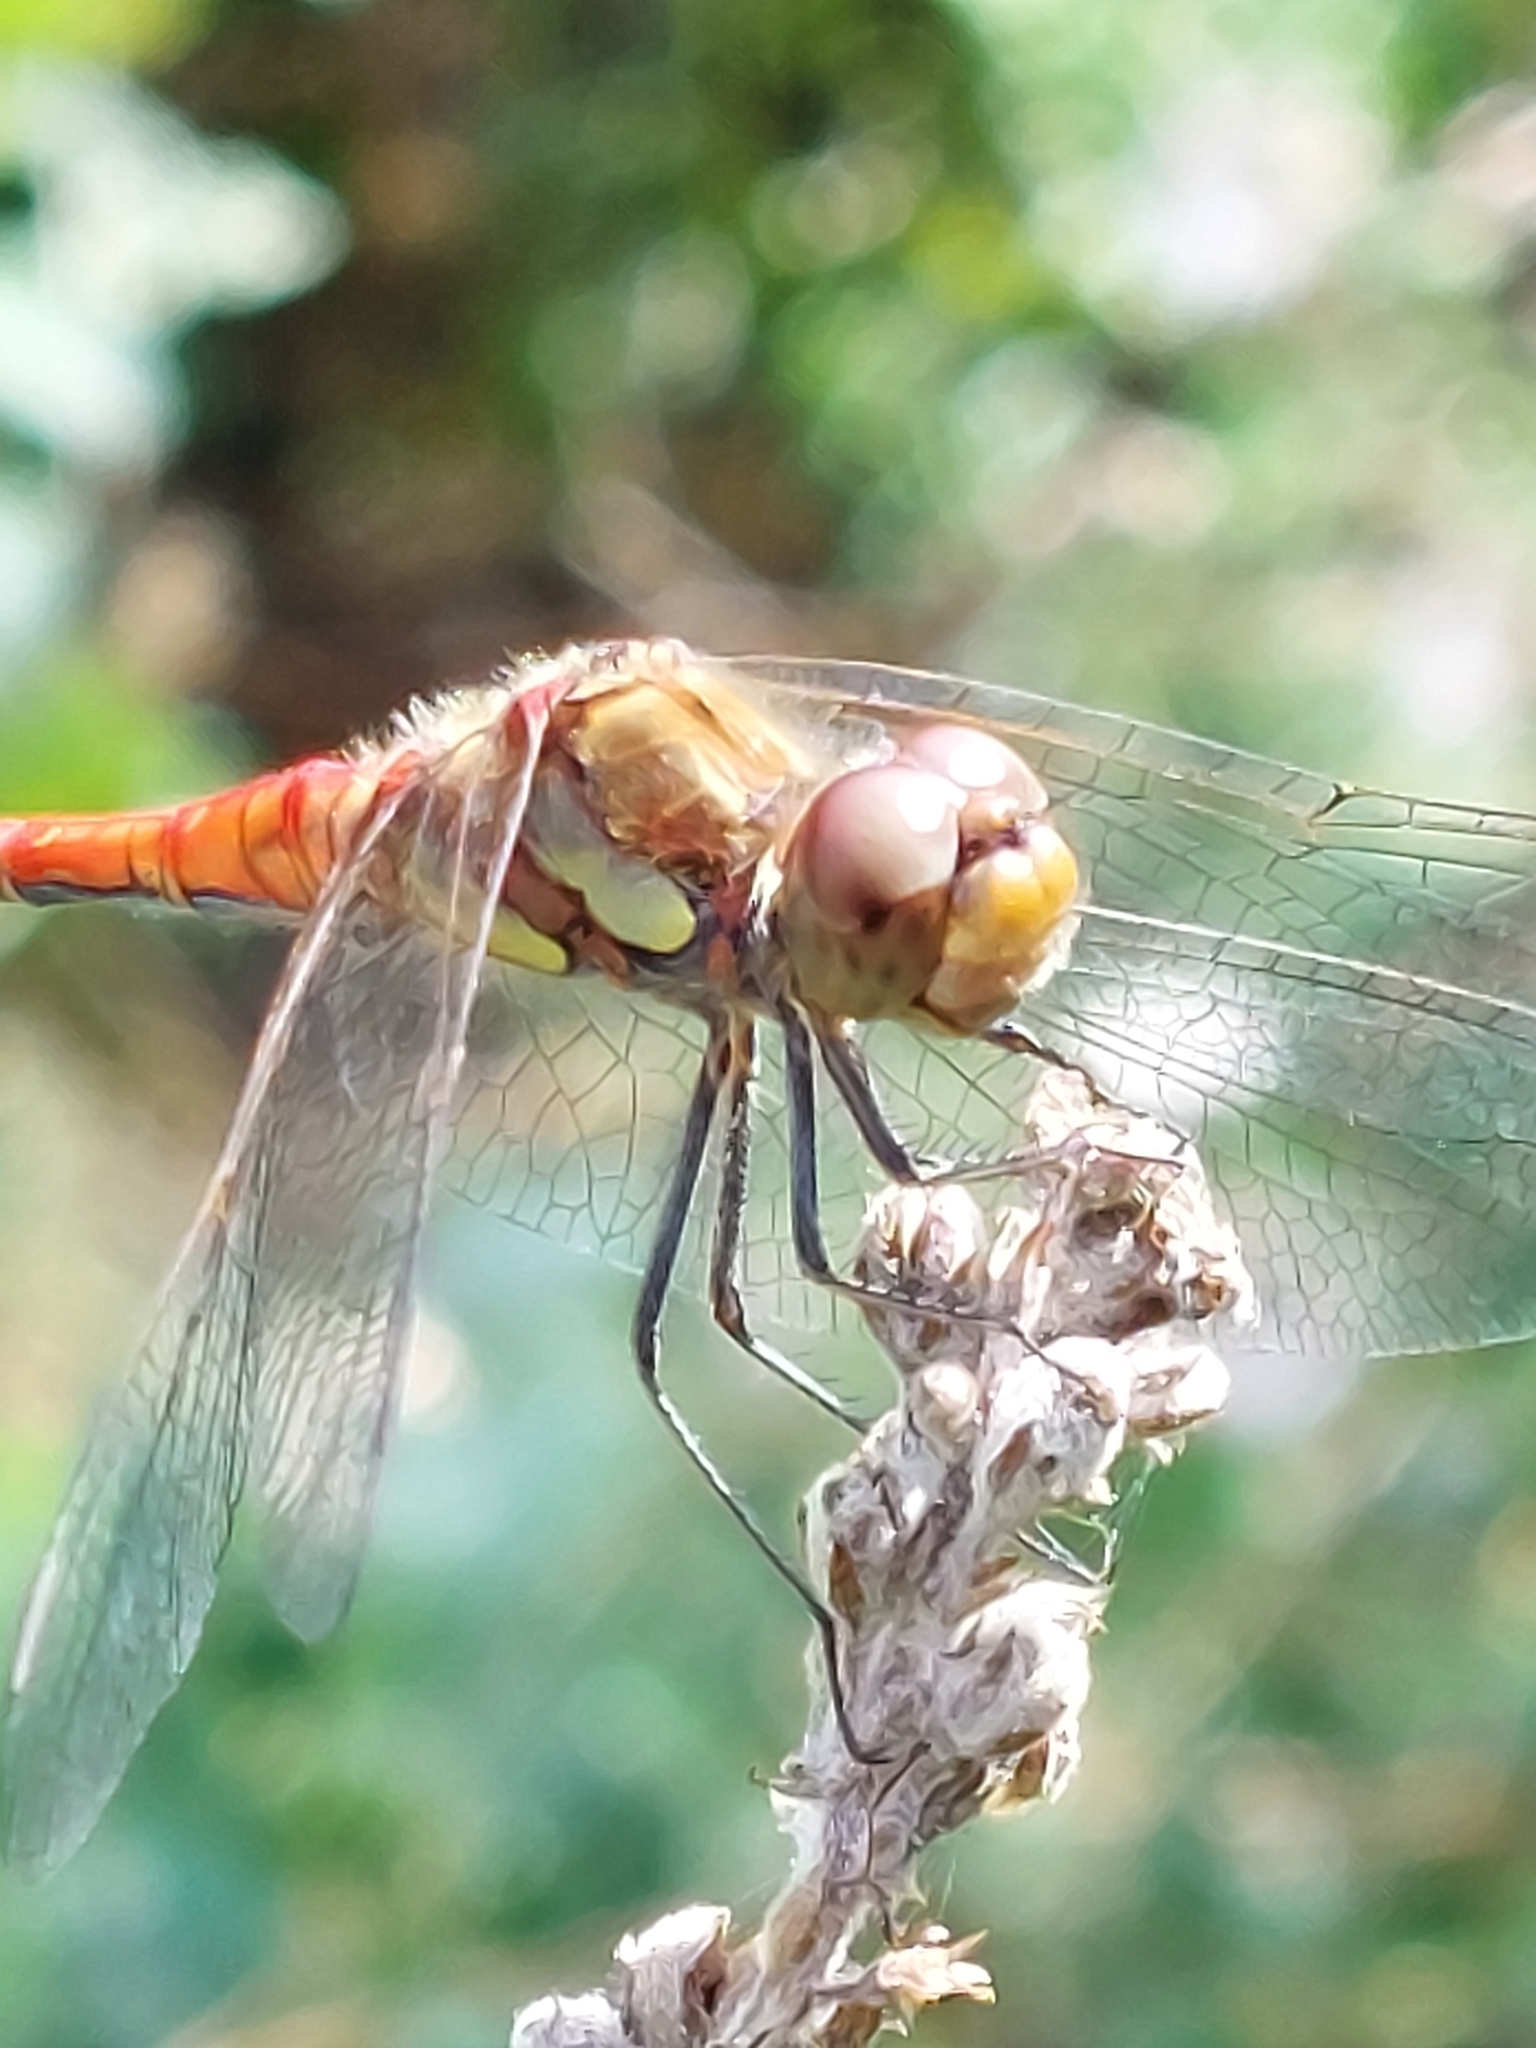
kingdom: Animalia
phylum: Arthropoda
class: Insecta
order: Odonata
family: Libellulidae
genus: Sympetrum
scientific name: Sympetrum striolatum
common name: Common darter
